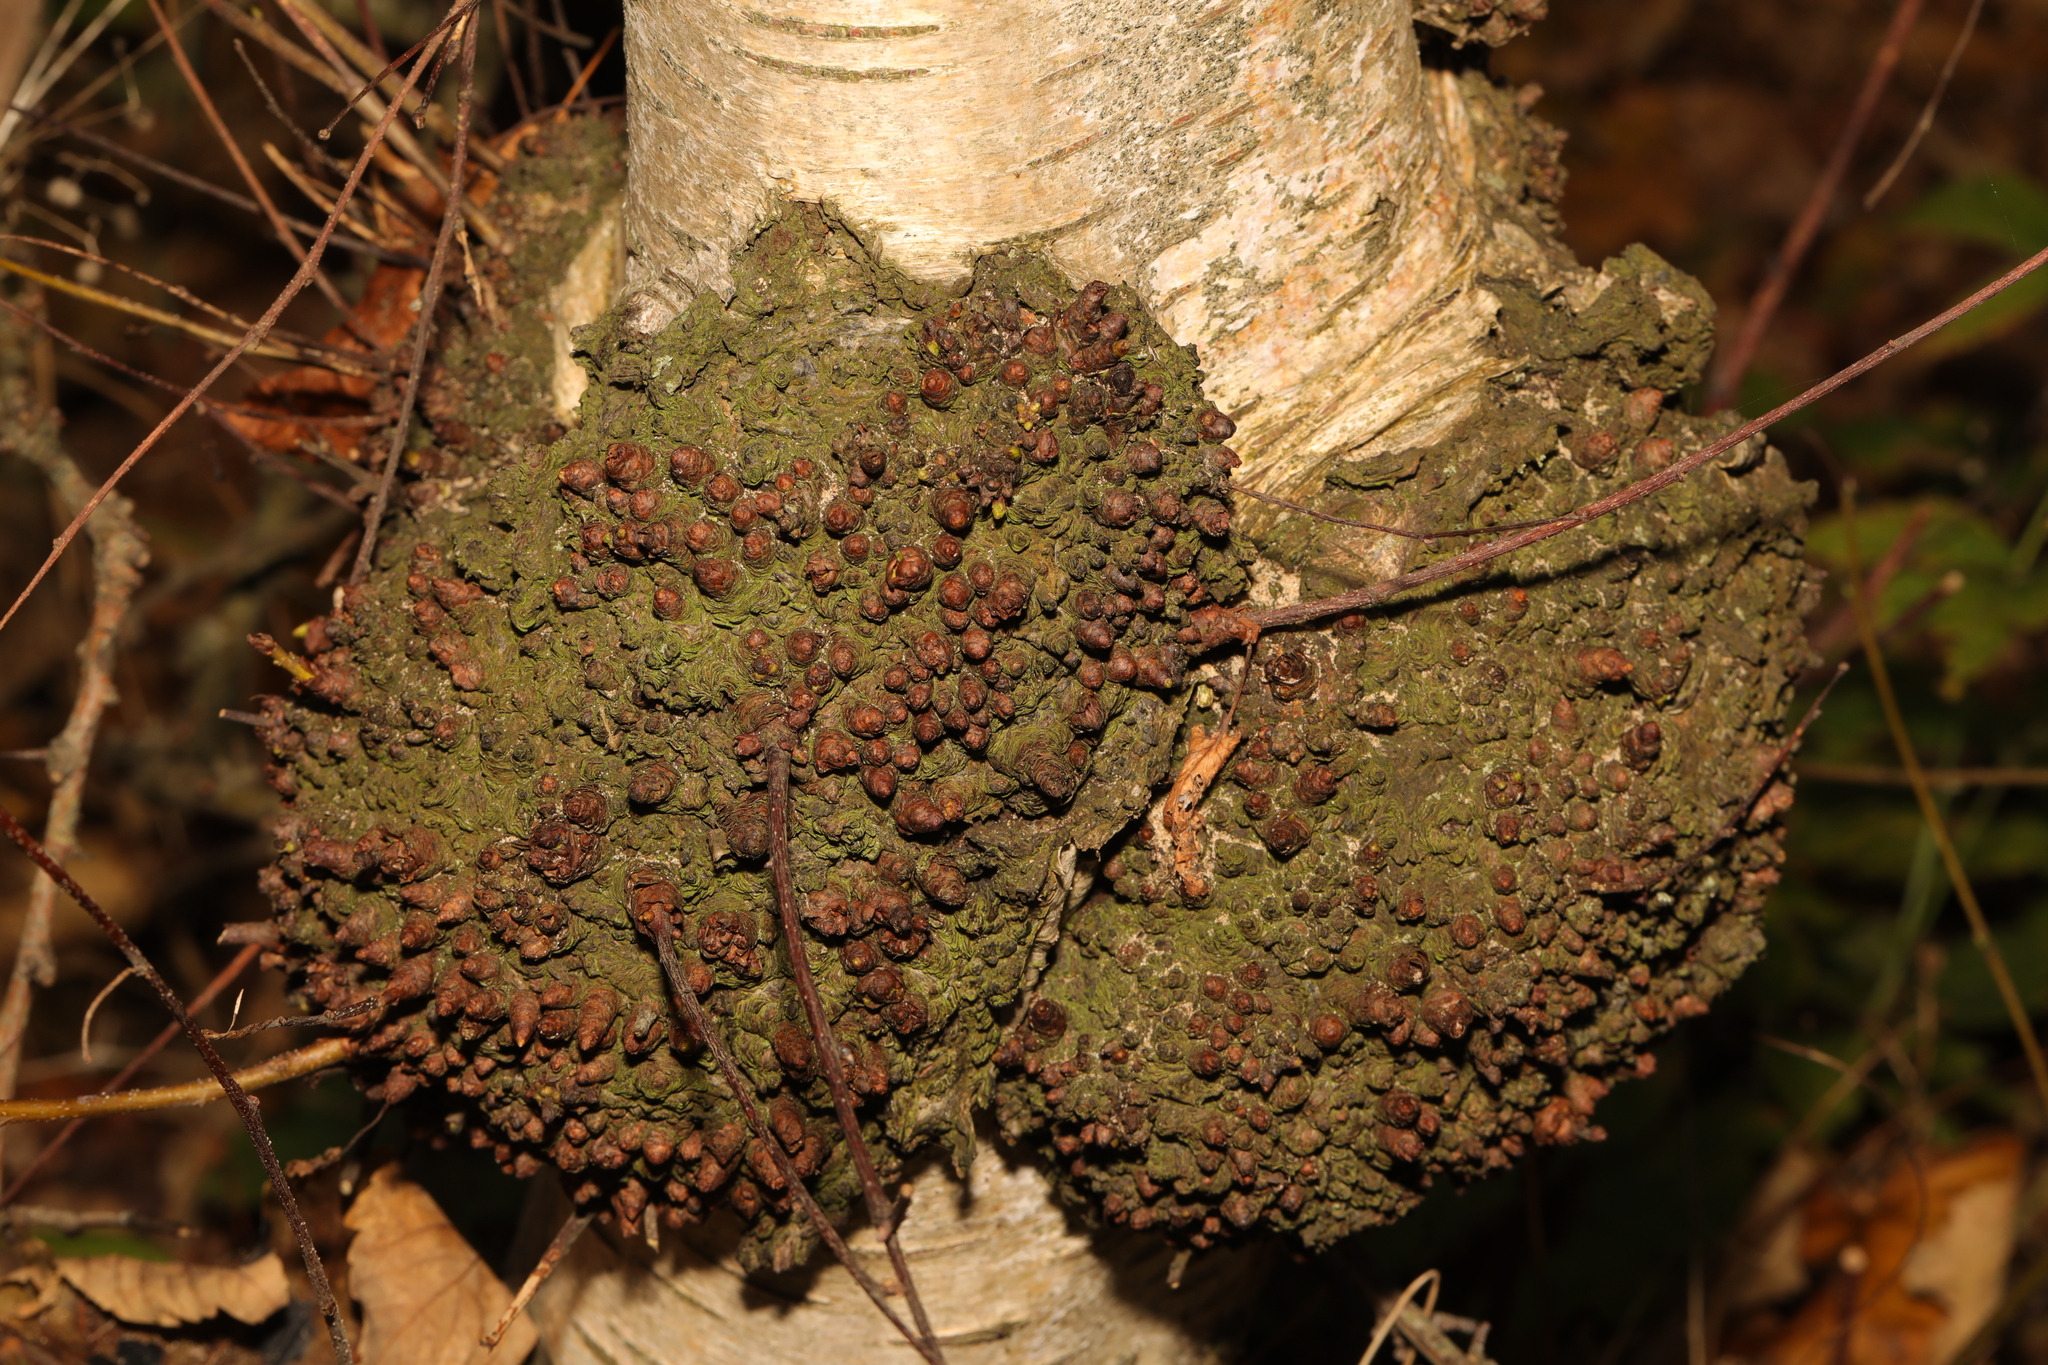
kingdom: Bacteria
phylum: Proteobacteria
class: Alphaproteobacteria
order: Rhizobiales
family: Rhizobiaceae
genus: Rhizobium
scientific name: Rhizobium Agrobacterium radiobacter
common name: Bacterial crown gall
